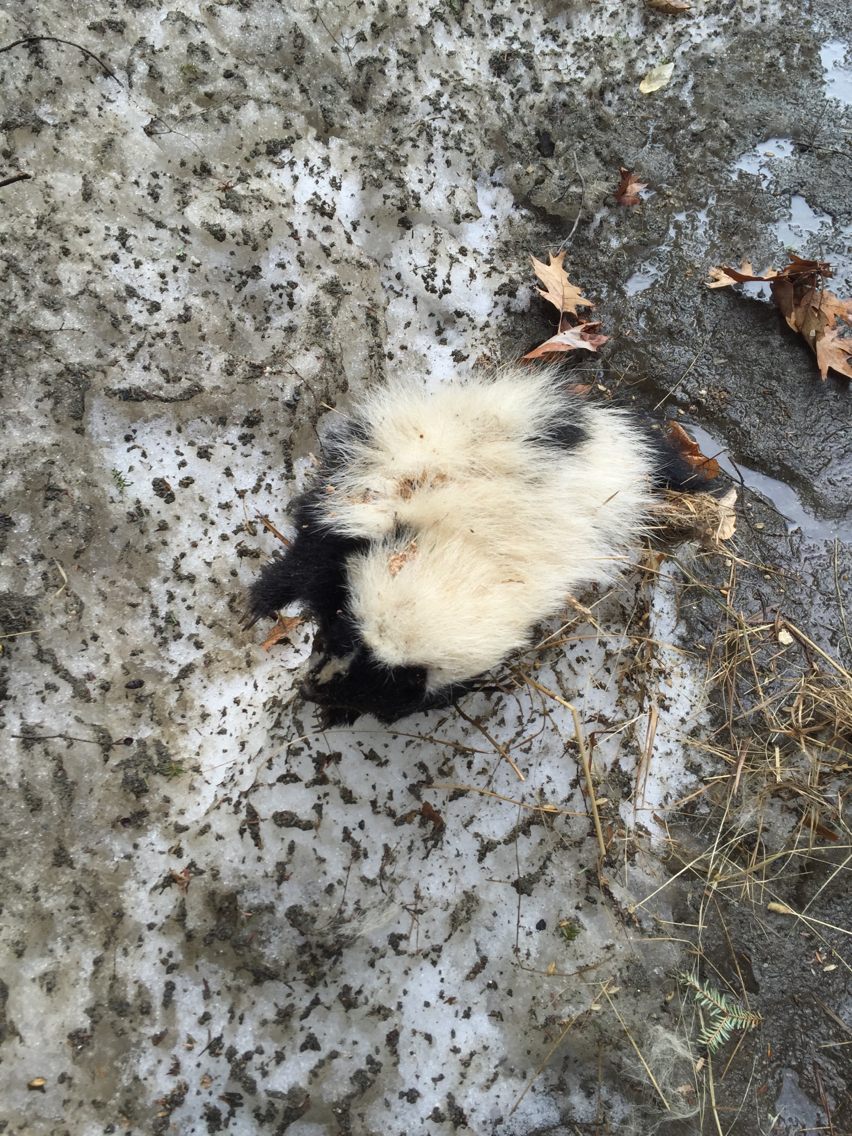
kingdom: Animalia
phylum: Chordata
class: Mammalia
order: Carnivora
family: Mephitidae
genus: Mephitis
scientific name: Mephitis mephitis
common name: Striped skunk
